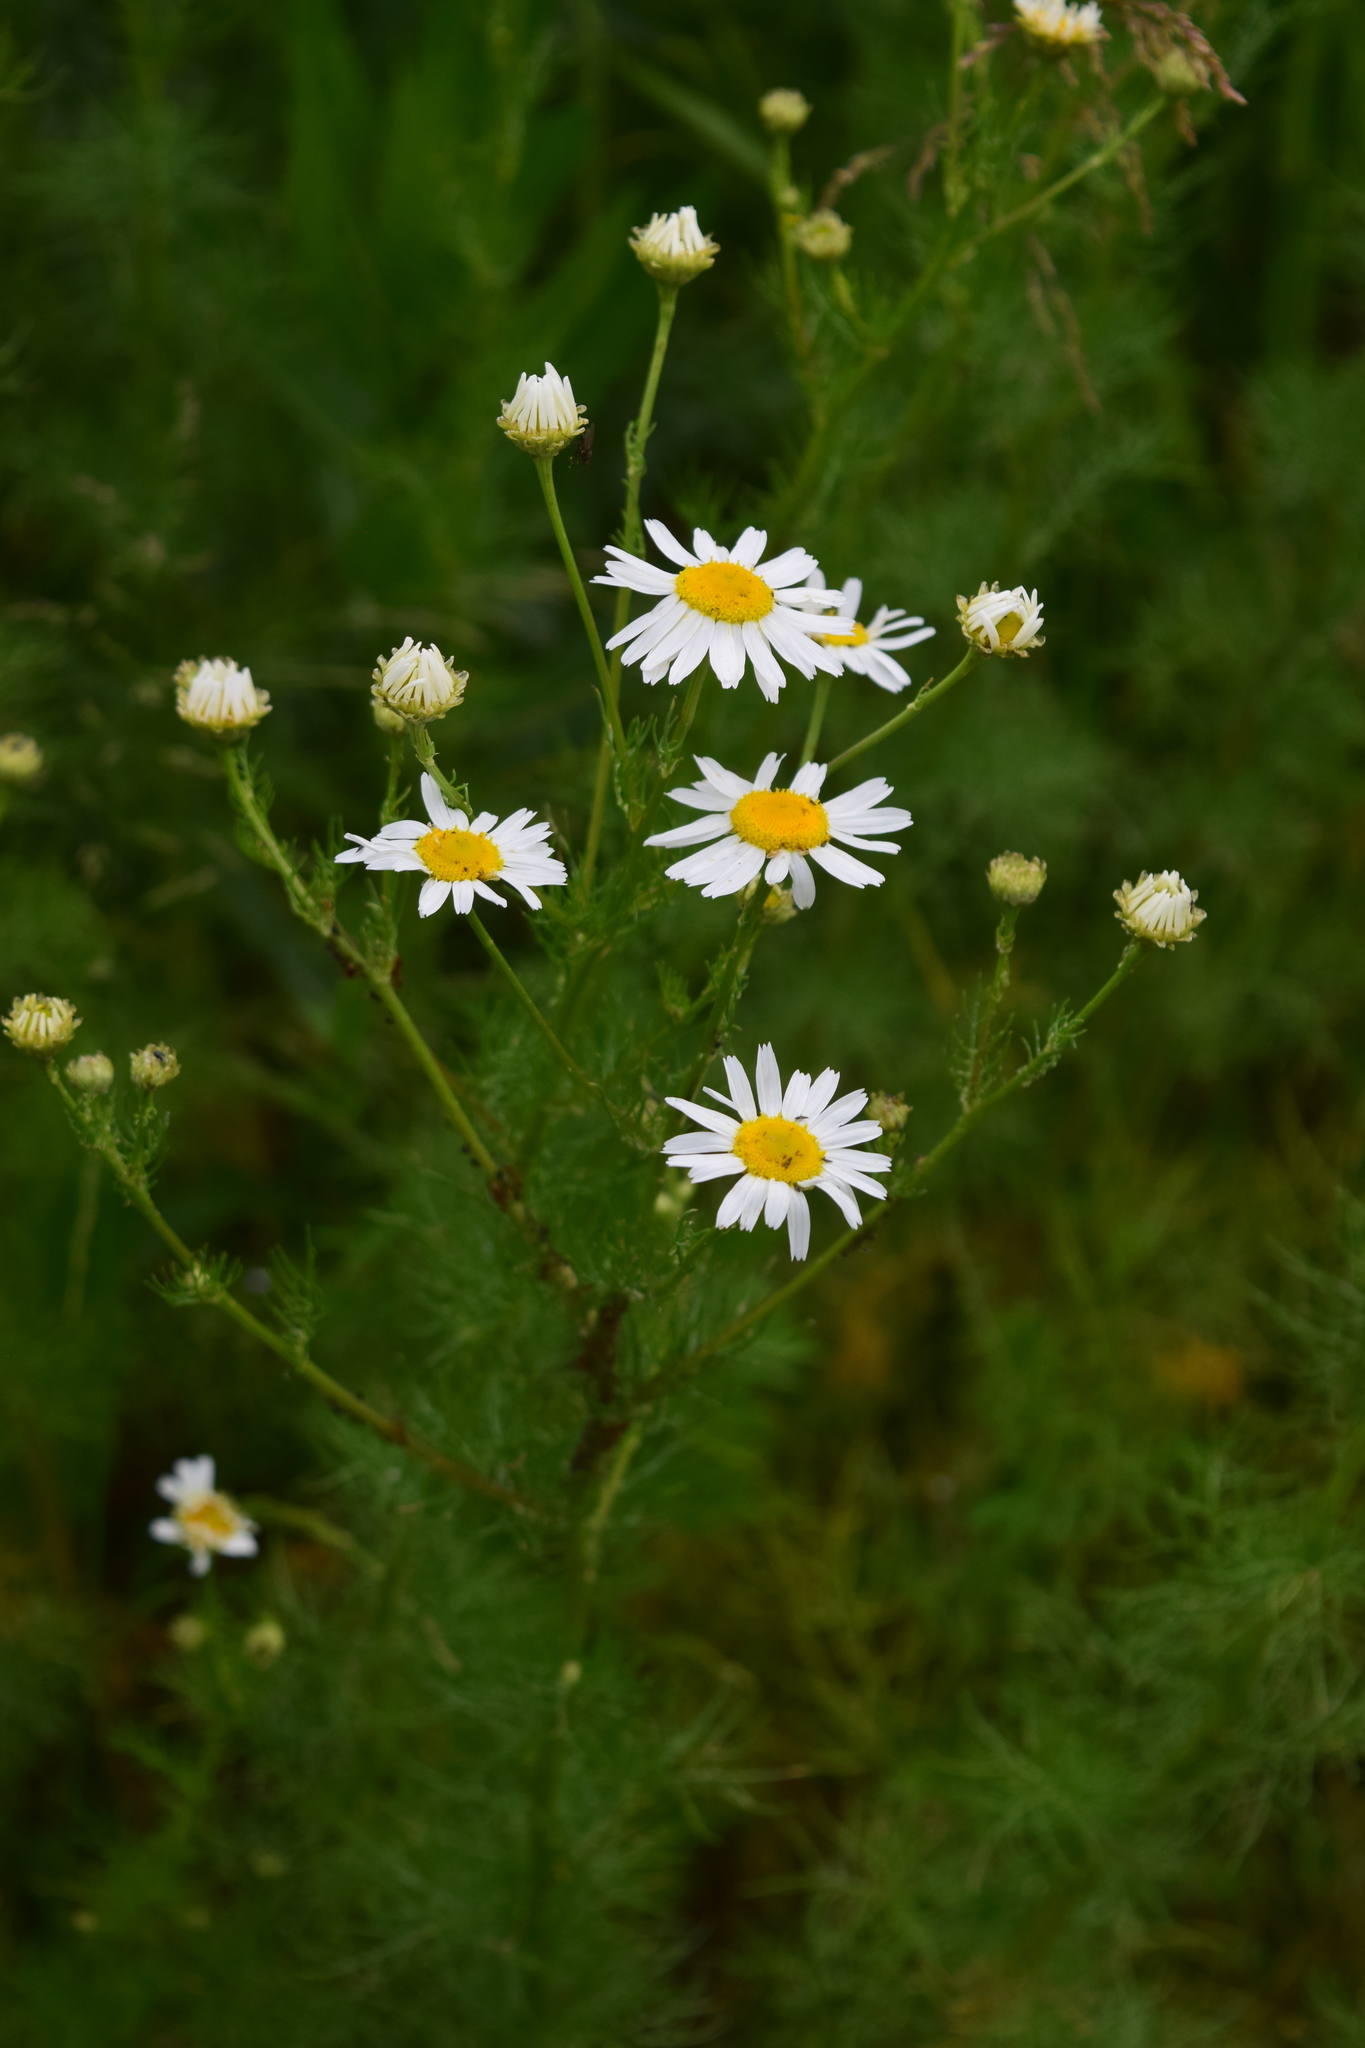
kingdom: Plantae
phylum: Tracheophyta
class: Magnoliopsida
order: Asterales
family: Asteraceae
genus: Tripleurospermum
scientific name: Tripleurospermum inodorum
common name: Scentless mayweed
